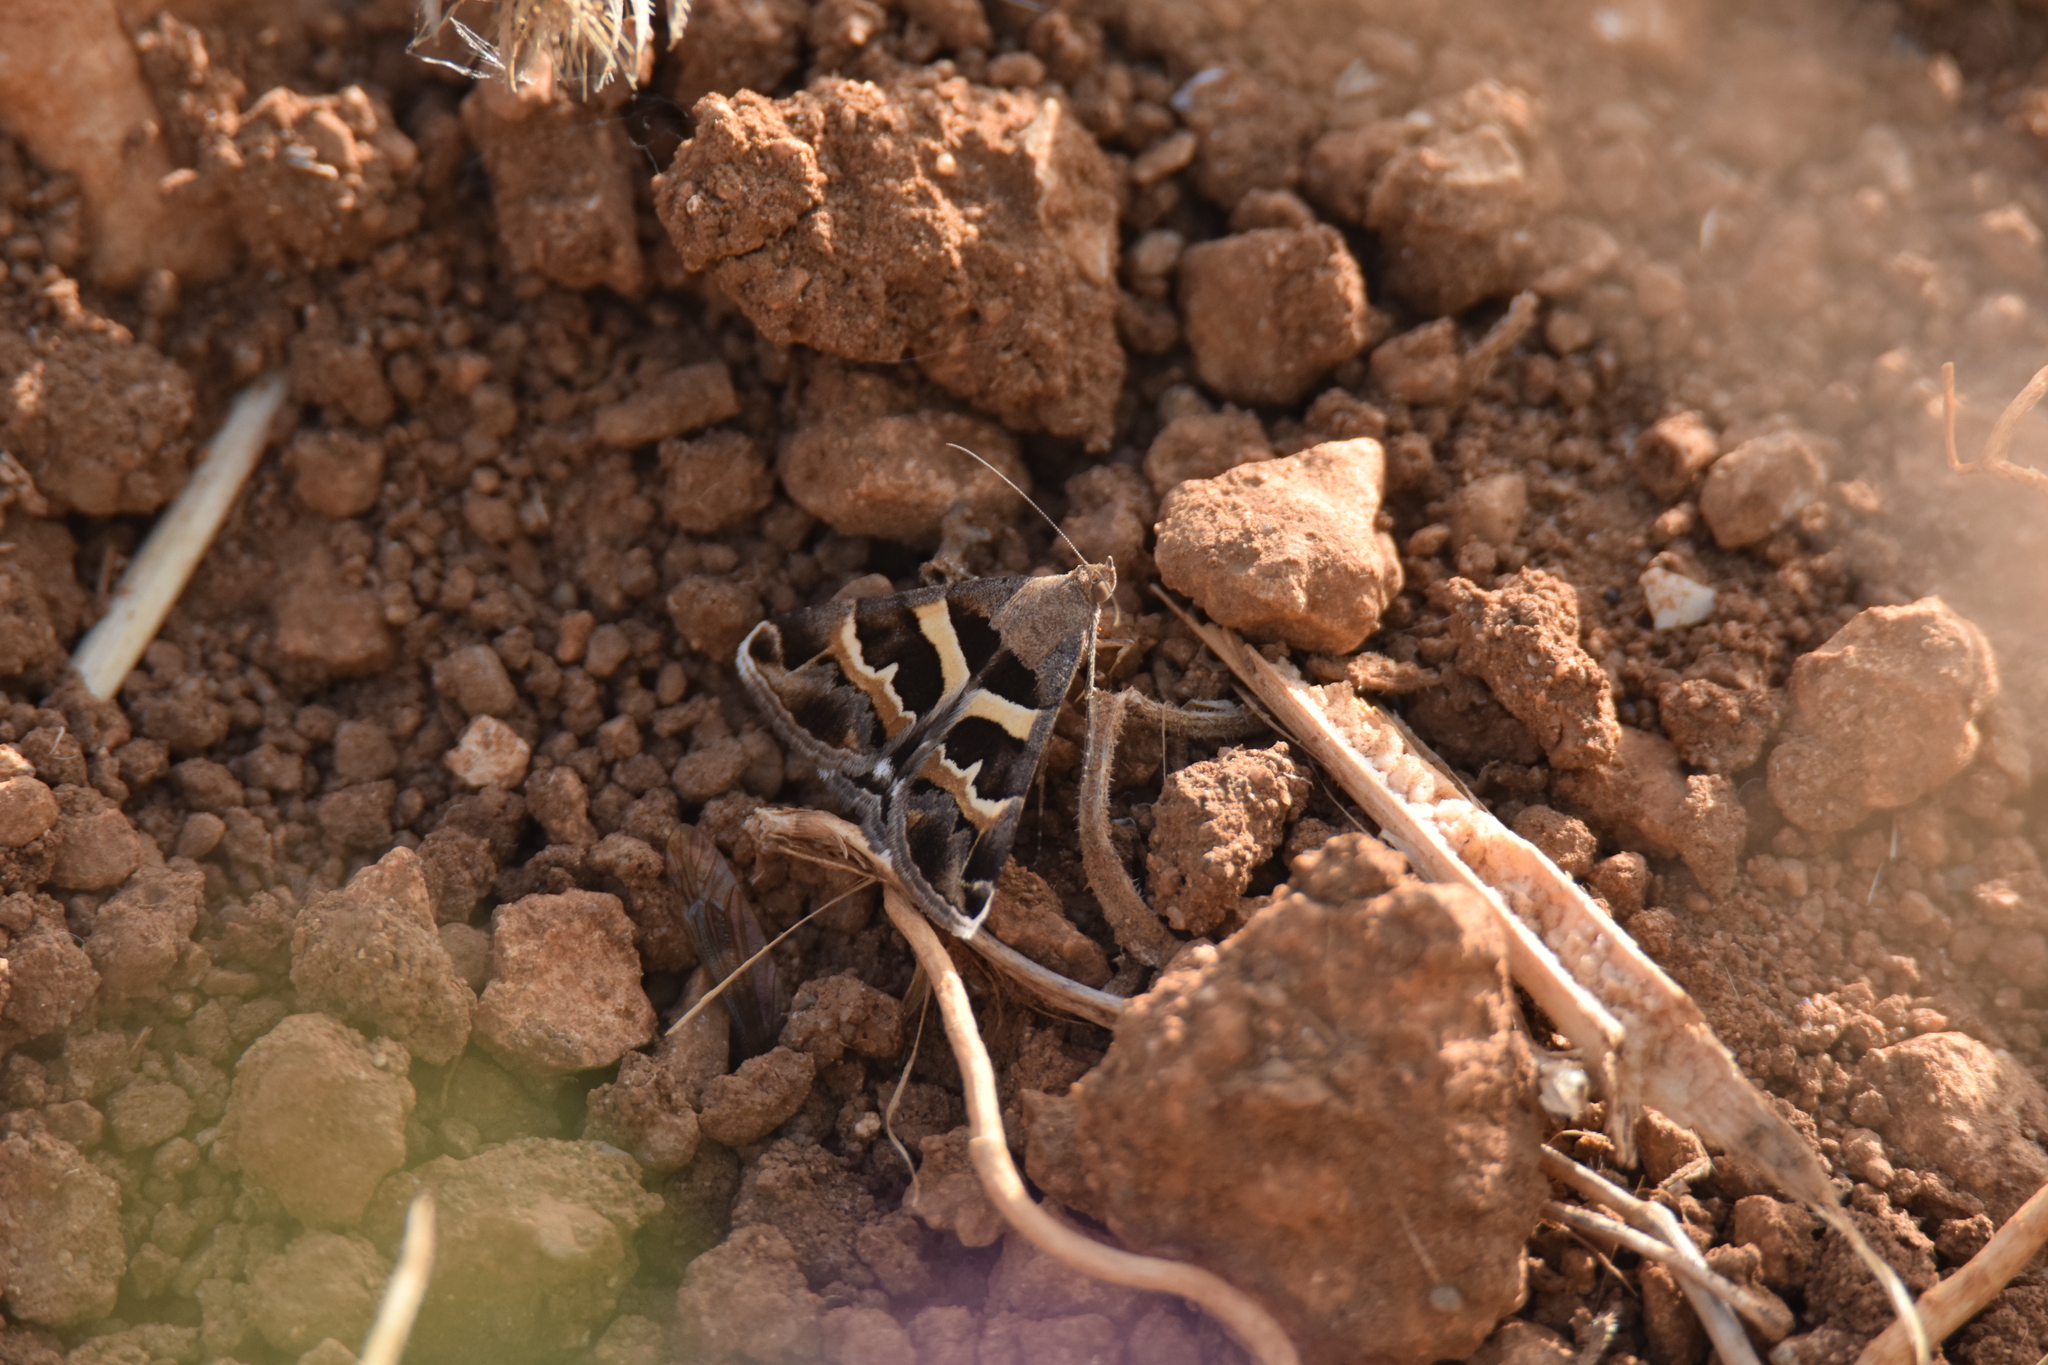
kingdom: Animalia
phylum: Arthropoda
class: Insecta
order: Lepidoptera
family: Erebidae
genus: Grammodes
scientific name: Grammodes stolida
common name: Geometrician
